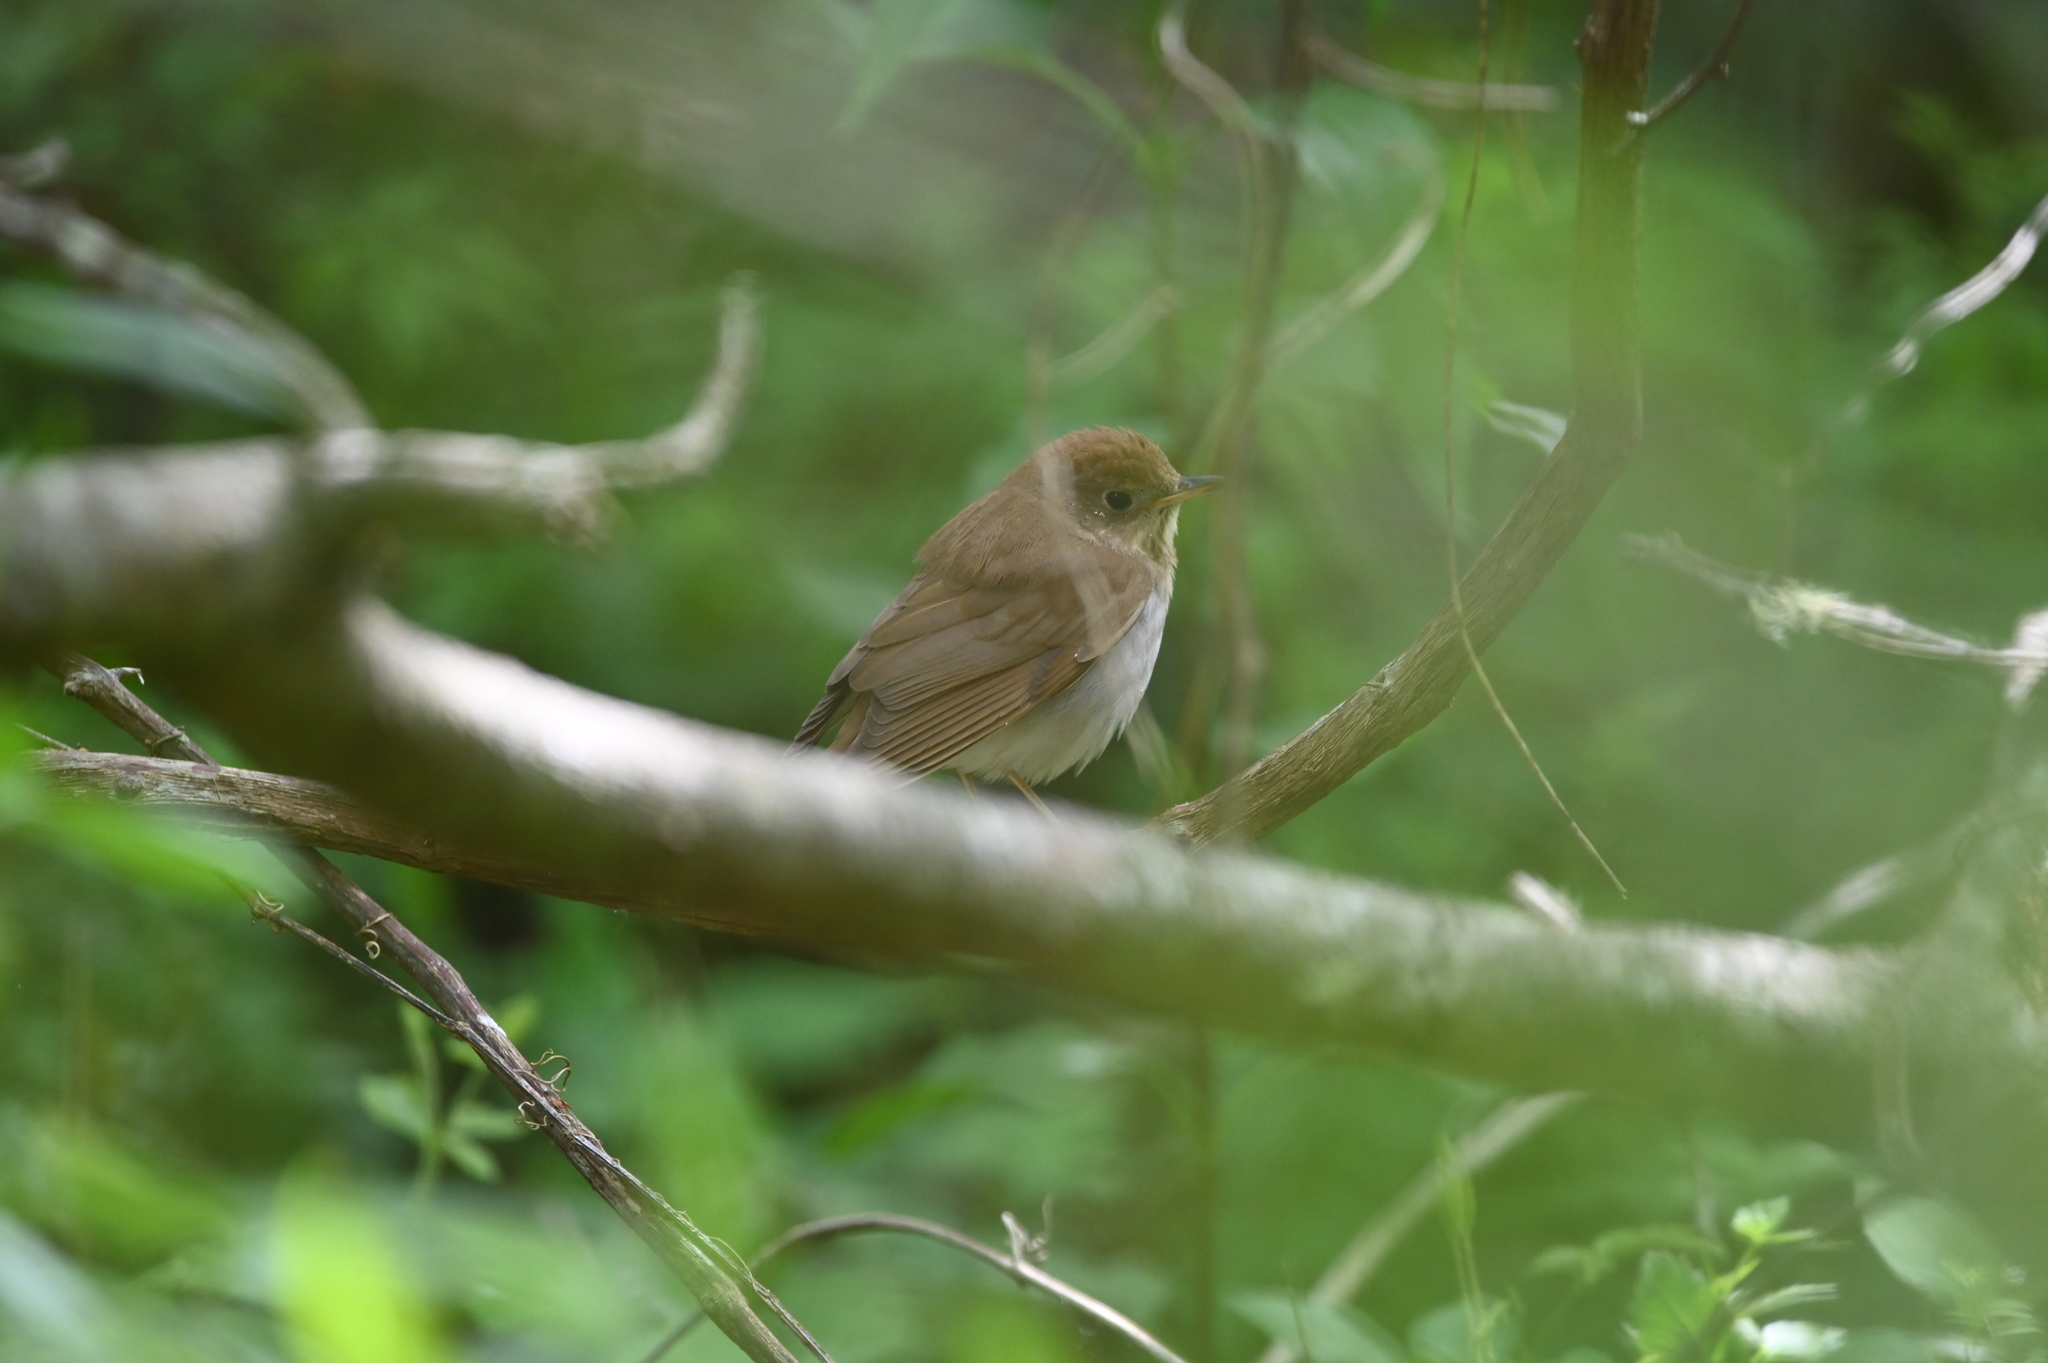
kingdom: Animalia
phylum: Chordata
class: Aves
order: Passeriformes
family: Turdidae
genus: Catharus
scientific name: Catharus fuscescens
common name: Veery
